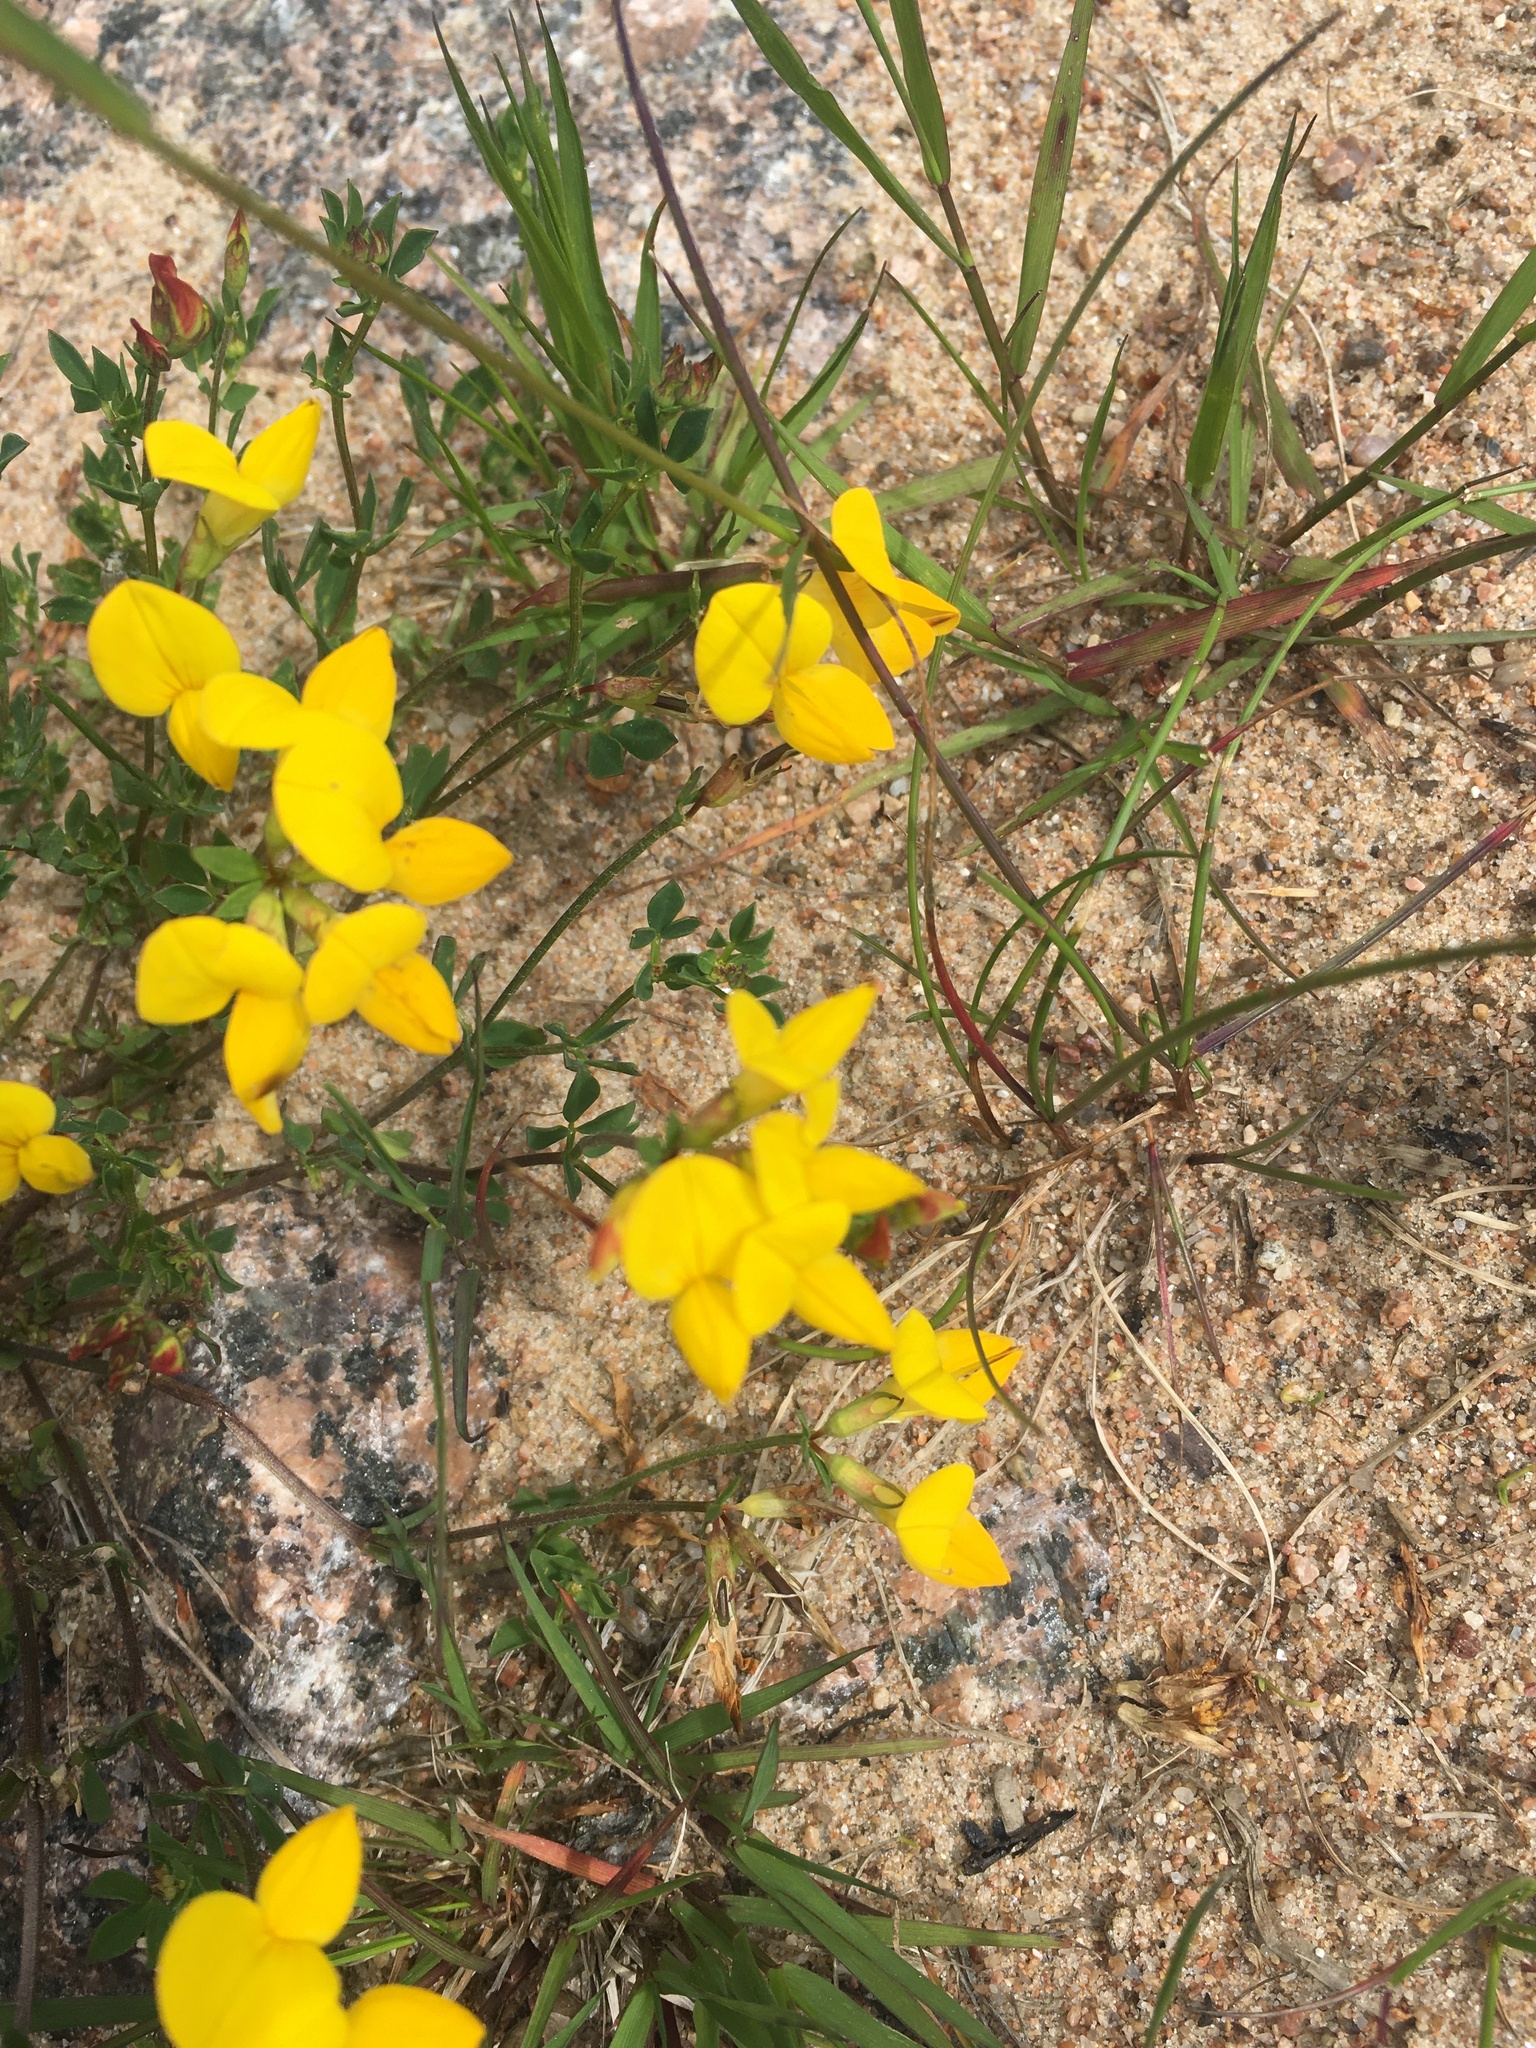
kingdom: Plantae
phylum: Tracheophyta
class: Magnoliopsida
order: Fabales
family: Fabaceae
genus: Lotus
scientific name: Lotus corniculatus
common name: Common bird's-foot-trefoil
